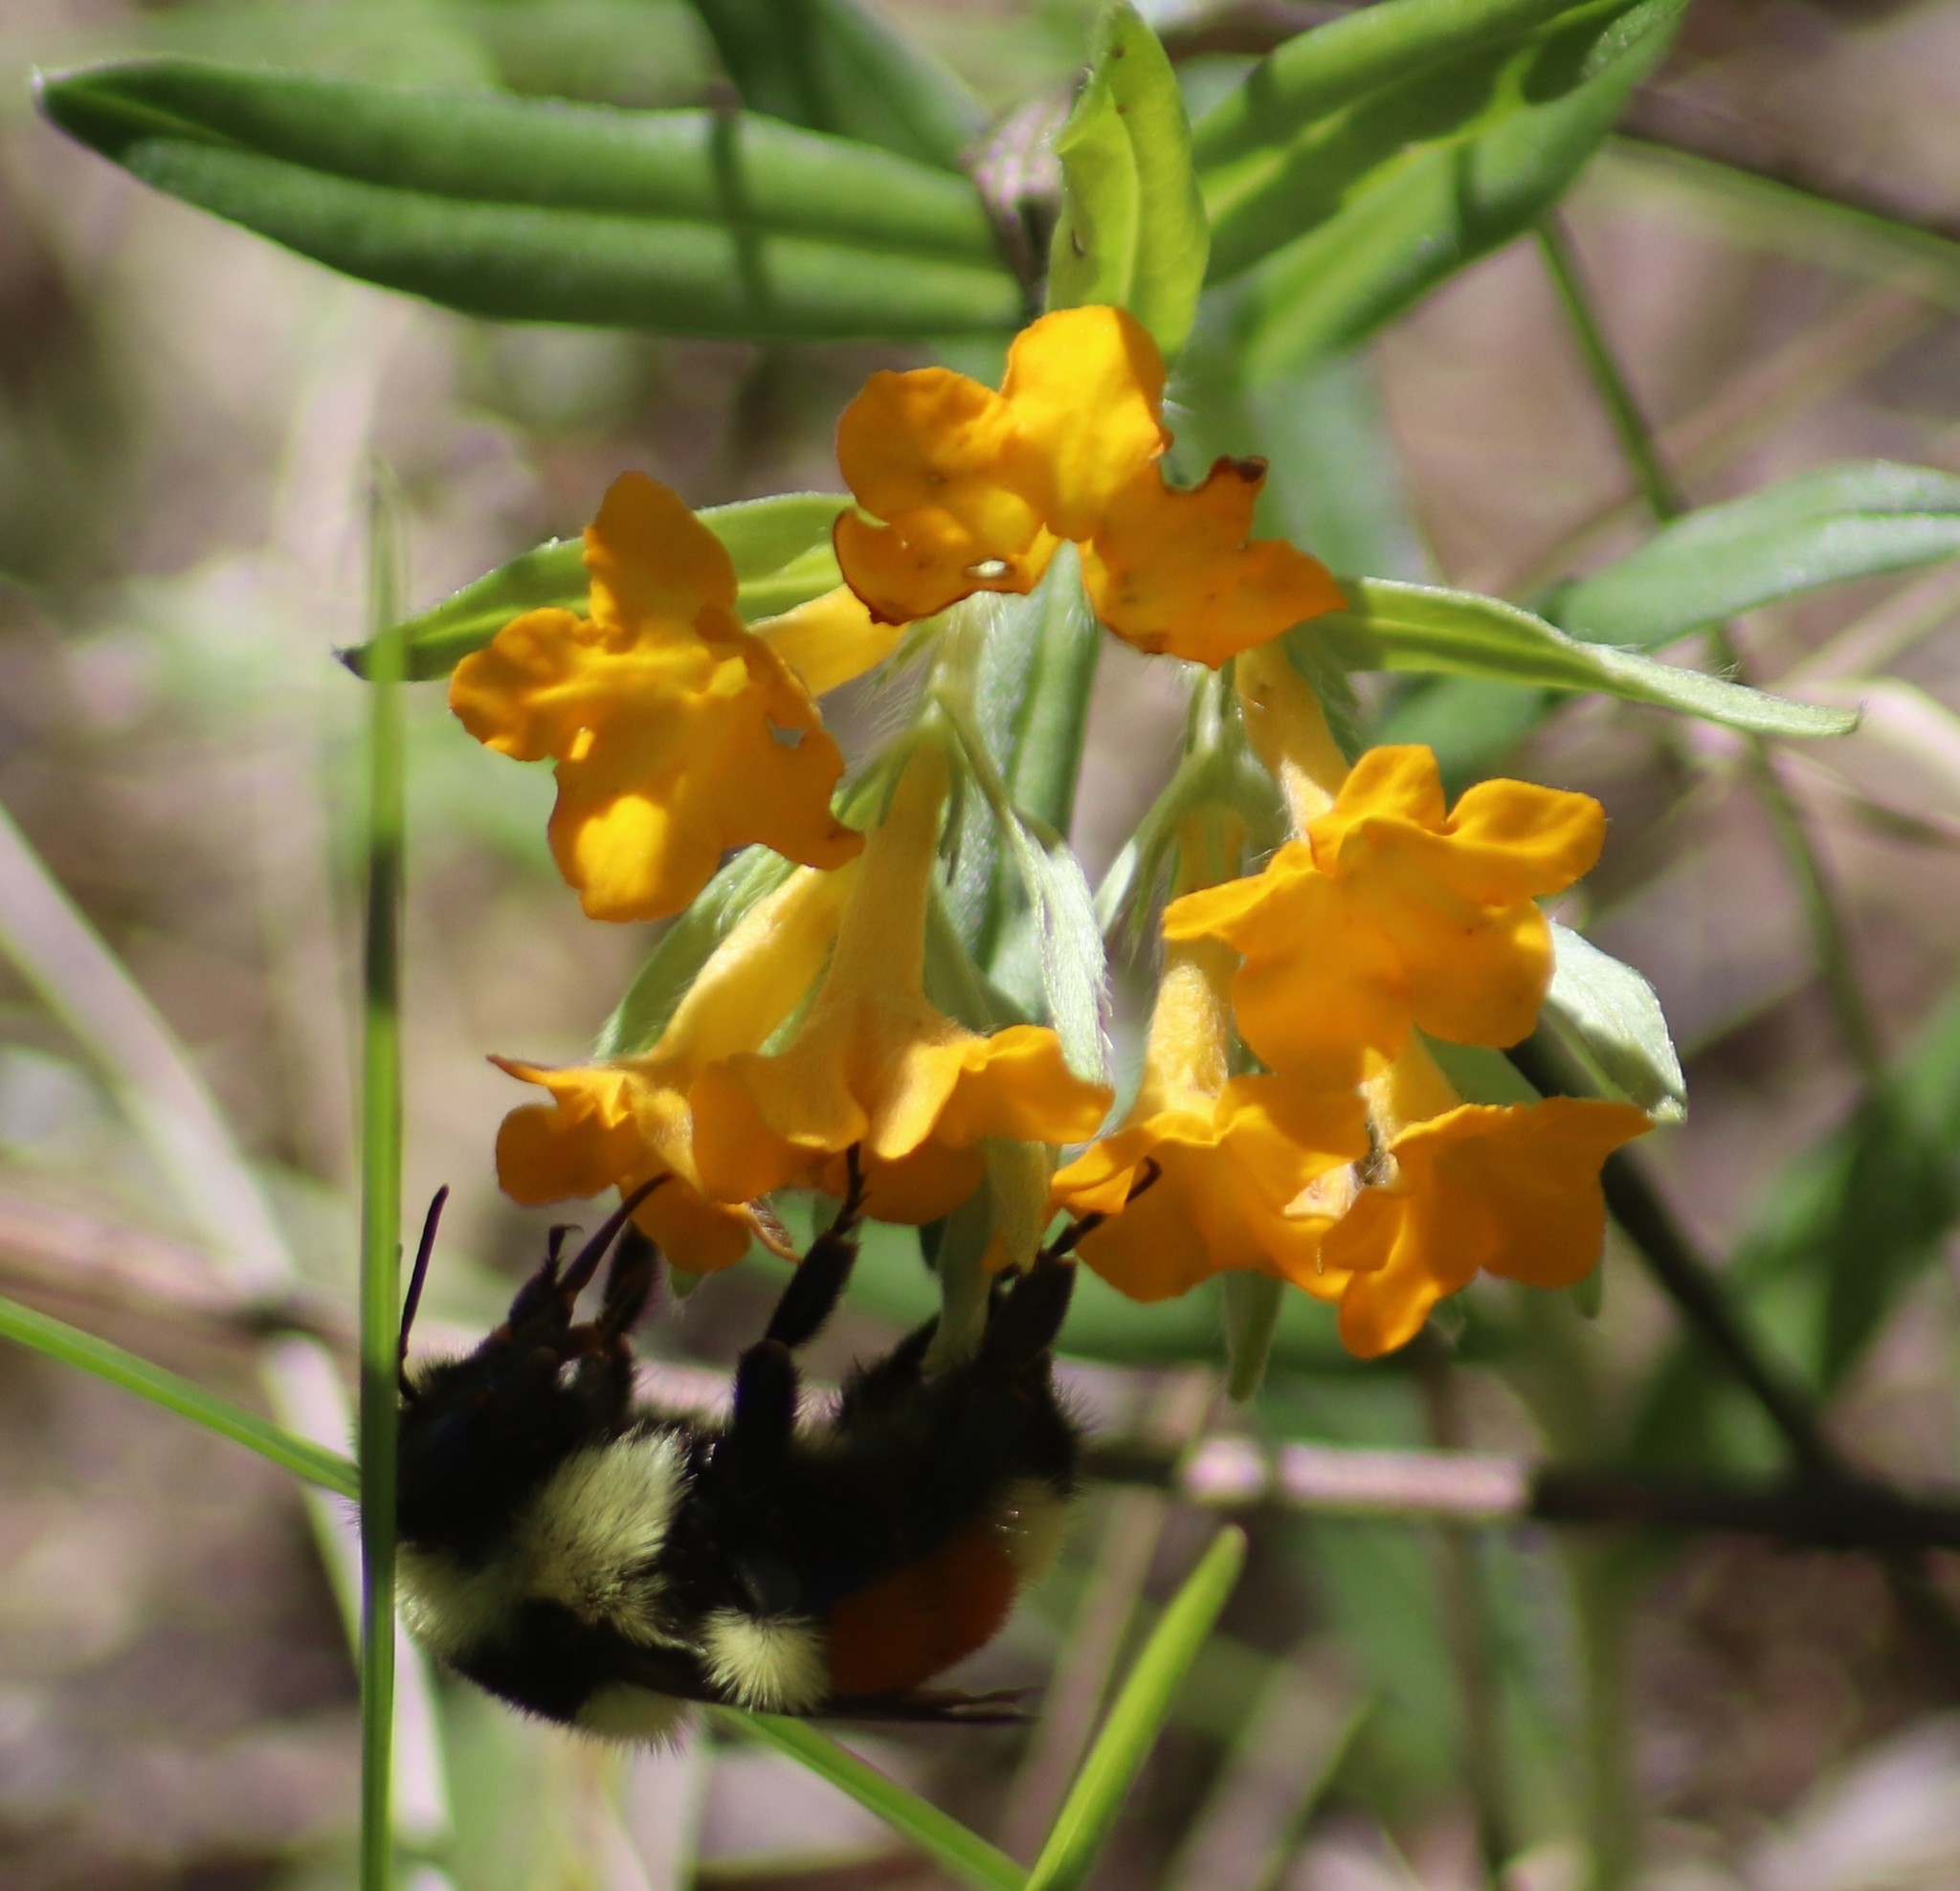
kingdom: Animalia
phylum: Arthropoda
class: Insecta
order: Hymenoptera
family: Apidae
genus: Bombus
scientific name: Bombus ternarius
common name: Tri-colored bumble bee
